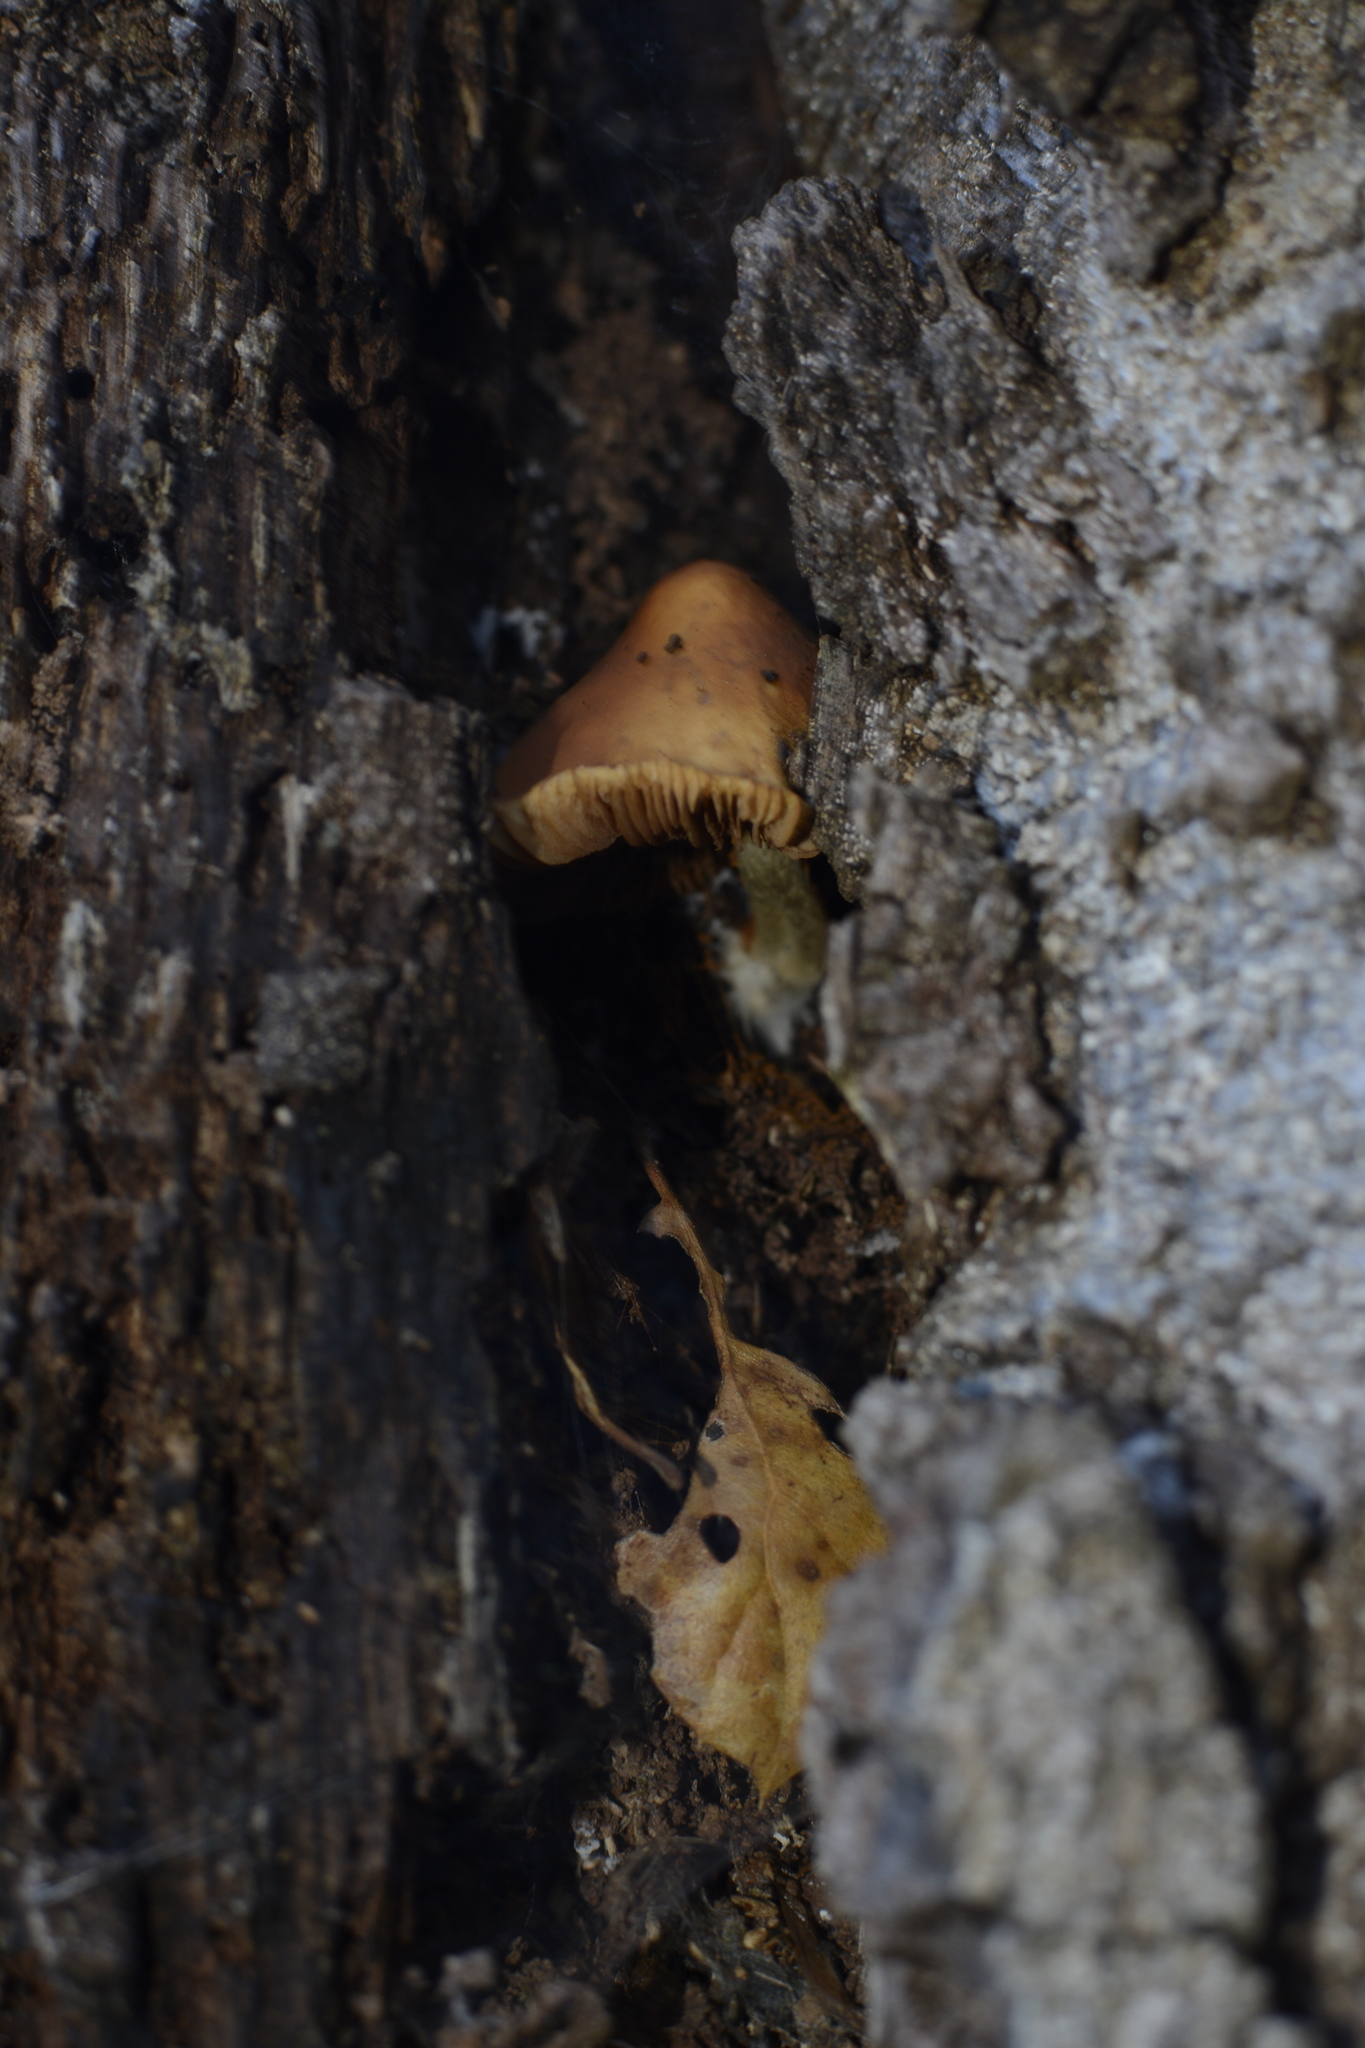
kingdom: Fungi
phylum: Basidiomycota
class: Agaricomycetes
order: Agaricales
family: Hymenogastraceae
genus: Galerina
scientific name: Galerina marginata
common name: Funeral bell
